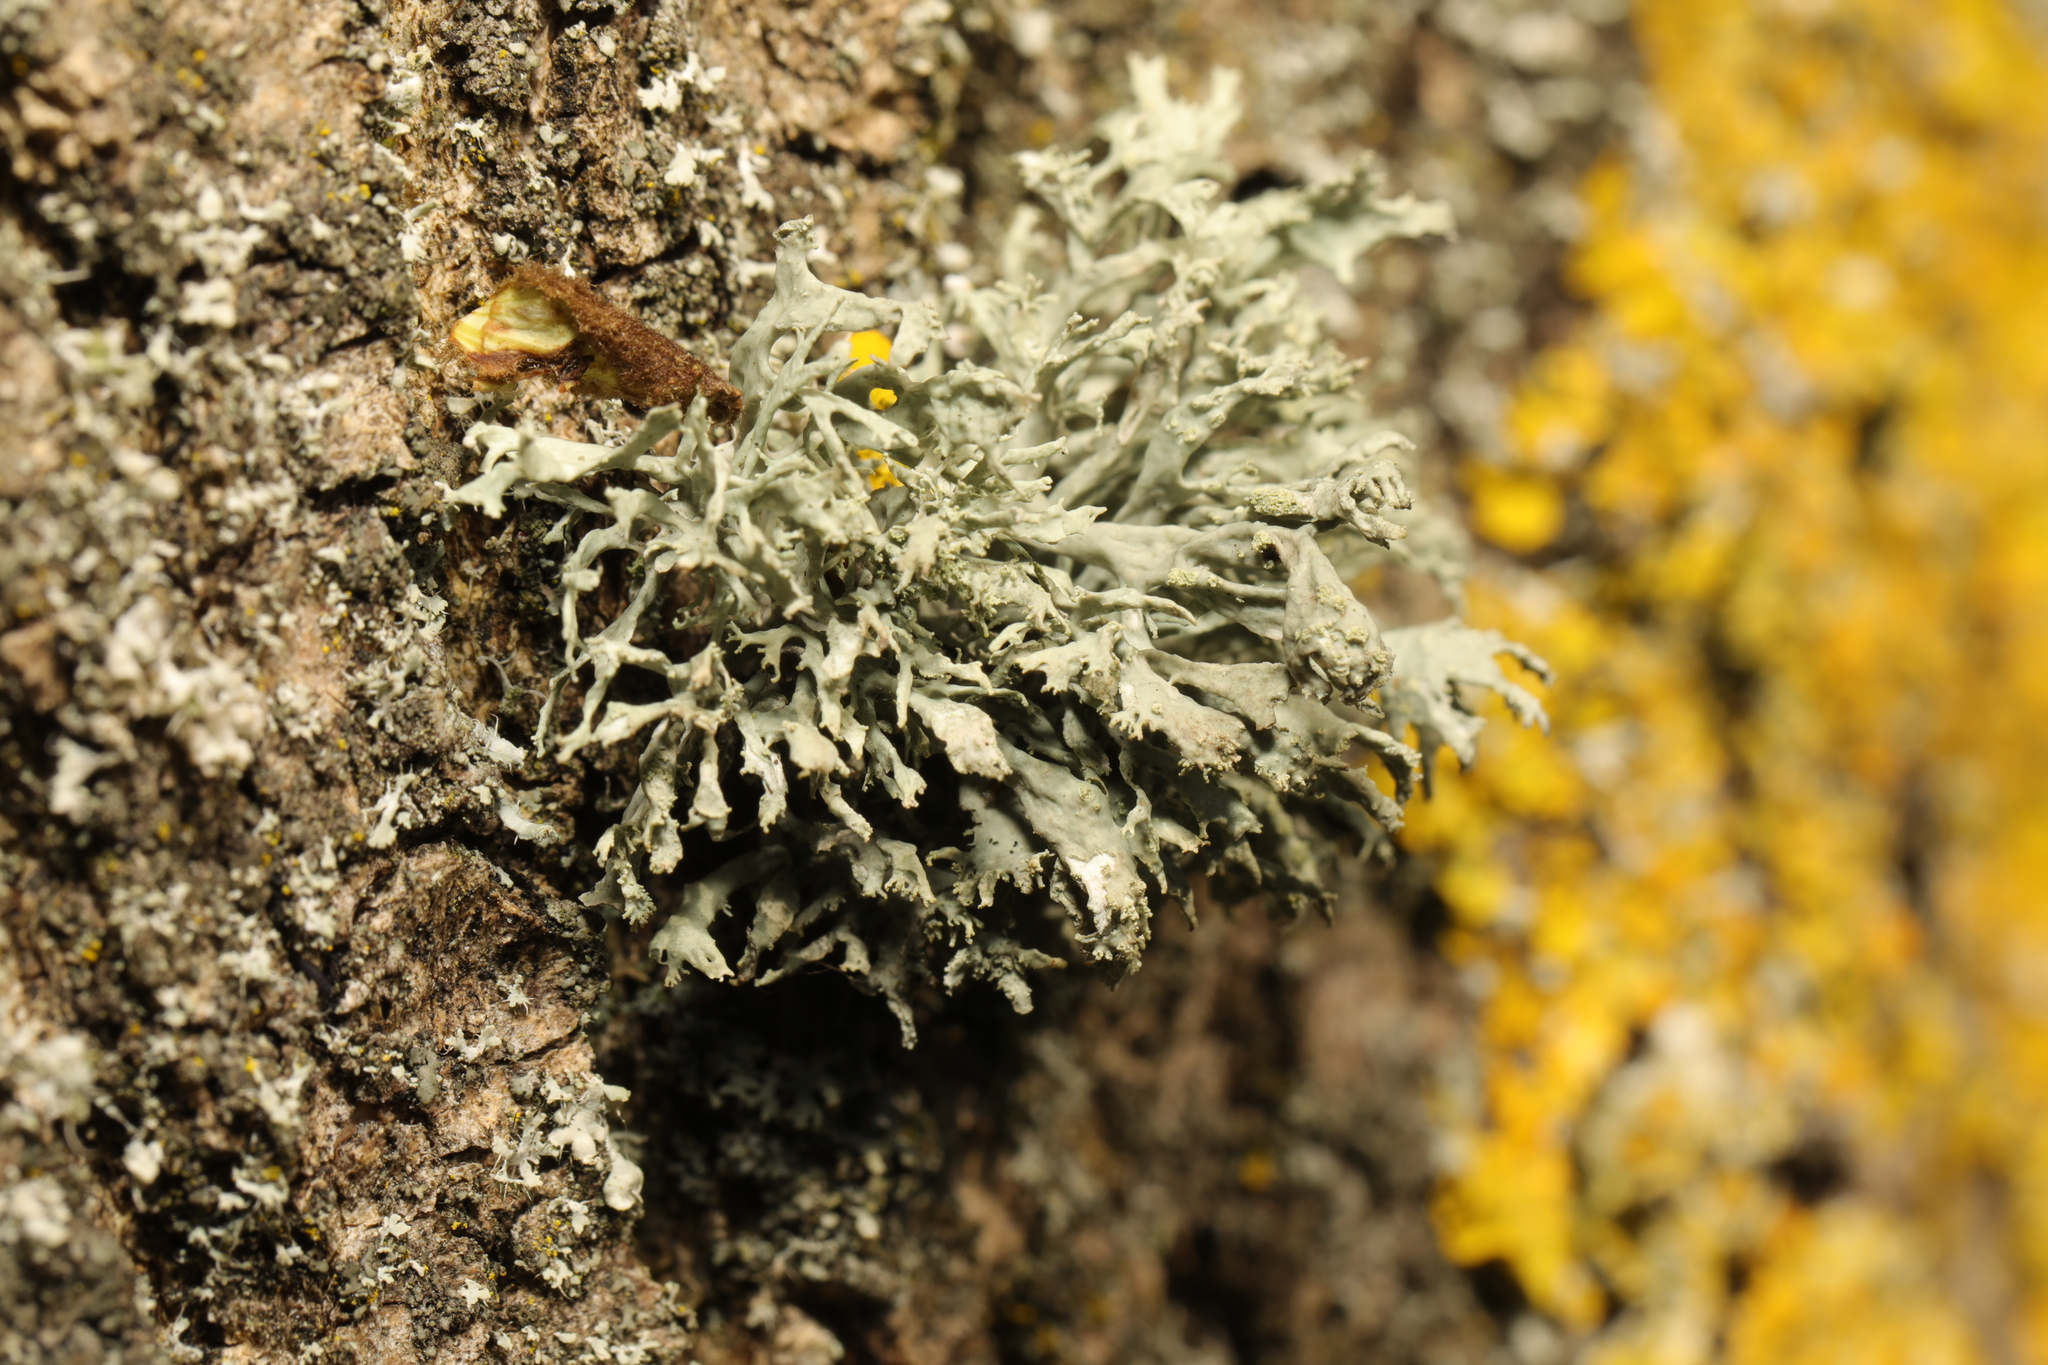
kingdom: Fungi
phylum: Ascomycota
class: Lecanoromycetes
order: Lecanorales
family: Parmeliaceae
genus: Evernia
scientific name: Evernia prunastri
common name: Oak moss
